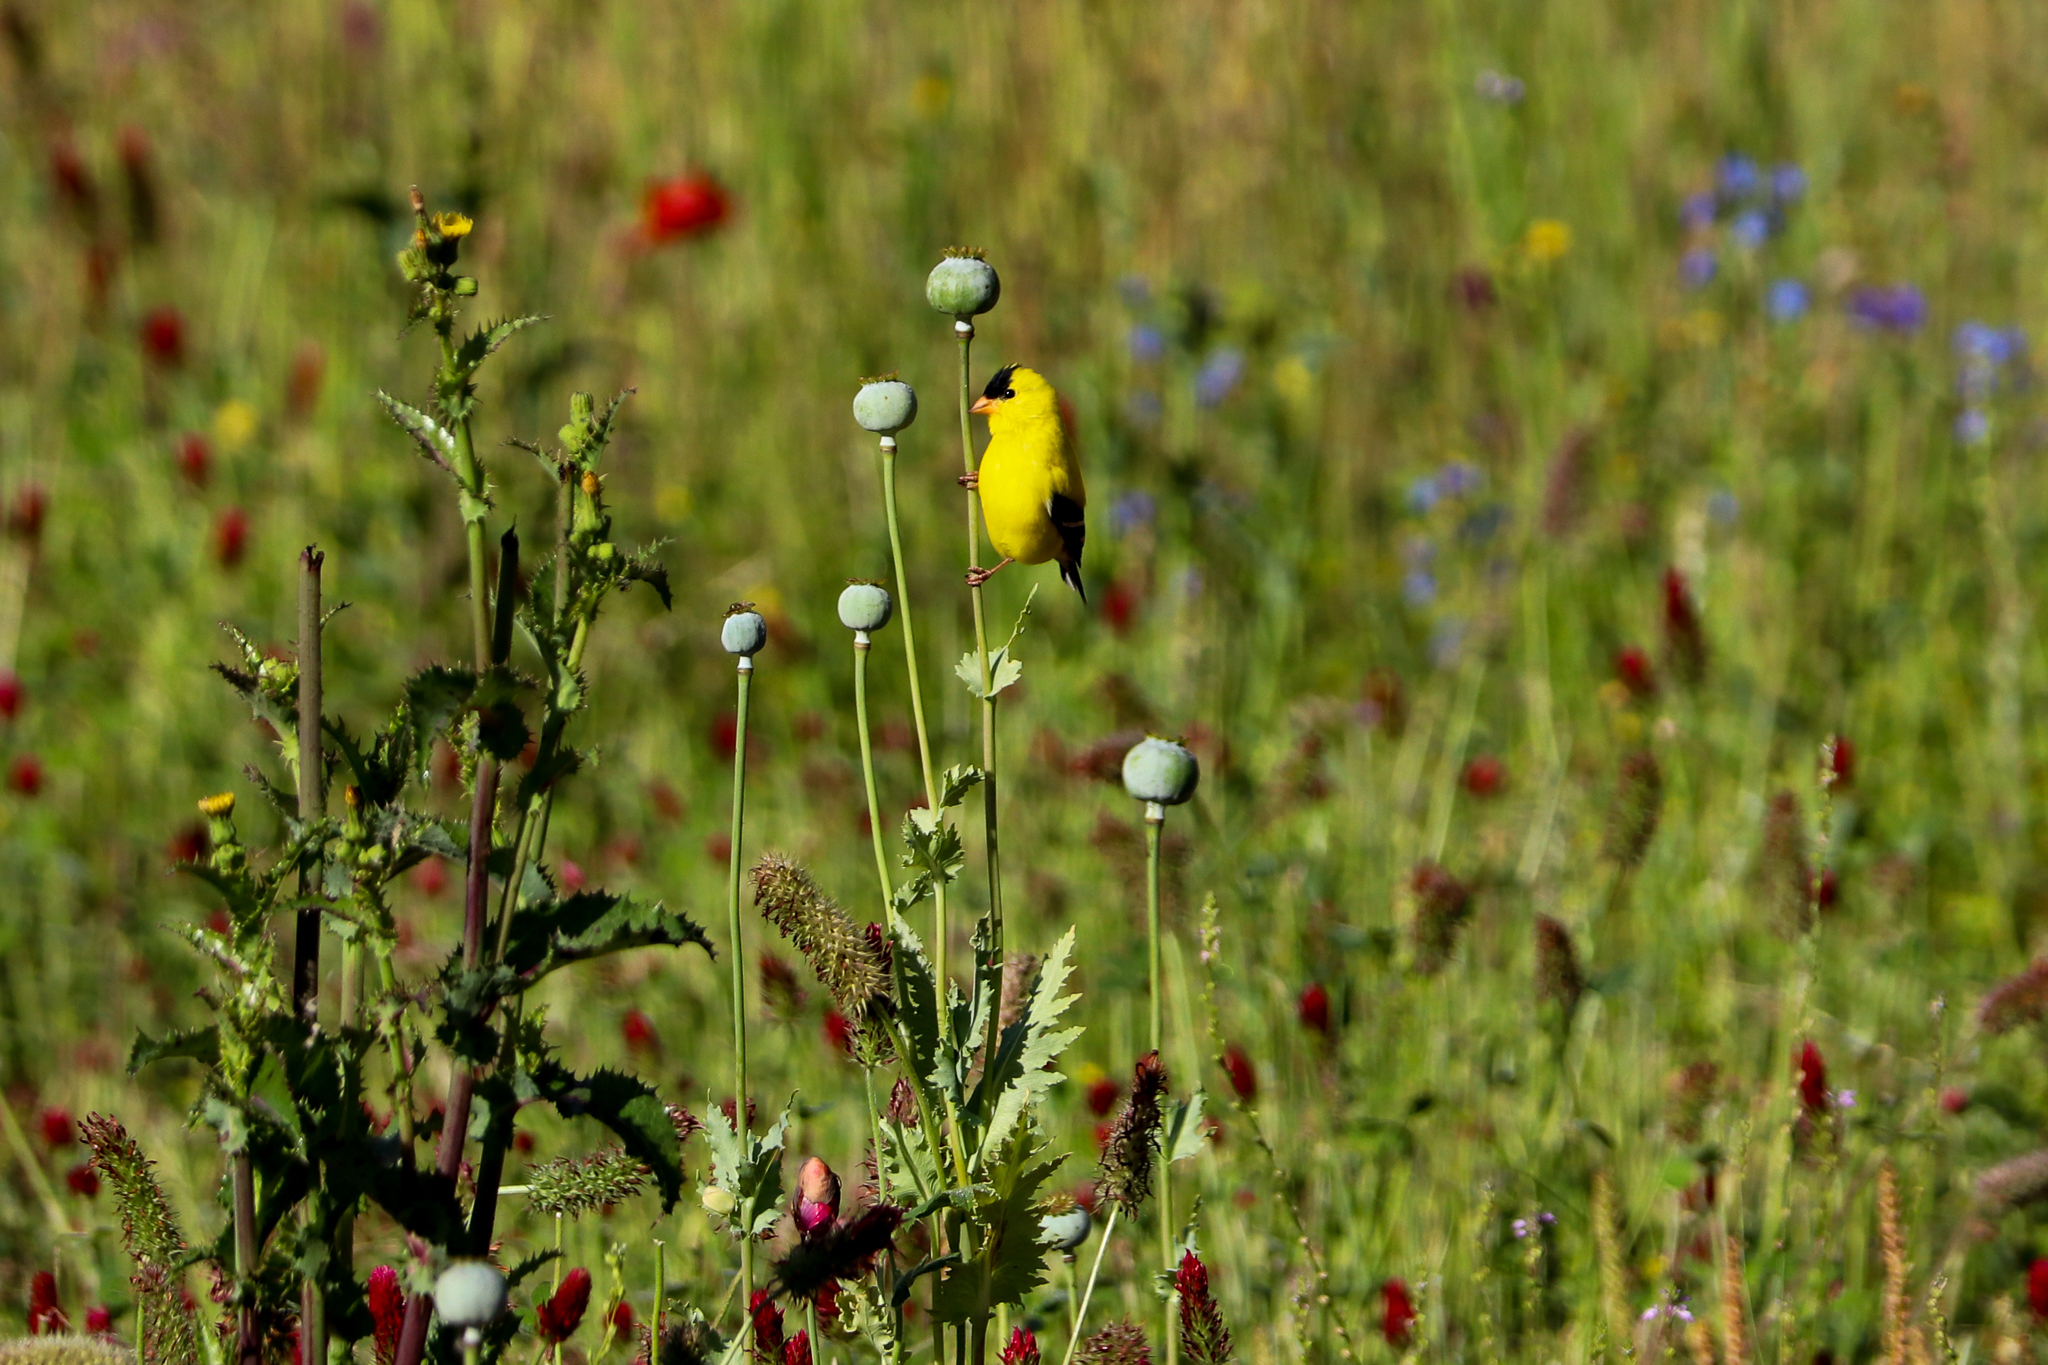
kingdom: Animalia
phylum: Chordata
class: Aves
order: Passeriformes
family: Fringillidae
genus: Spinus
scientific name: Spinus tristis
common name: American goldfinch
